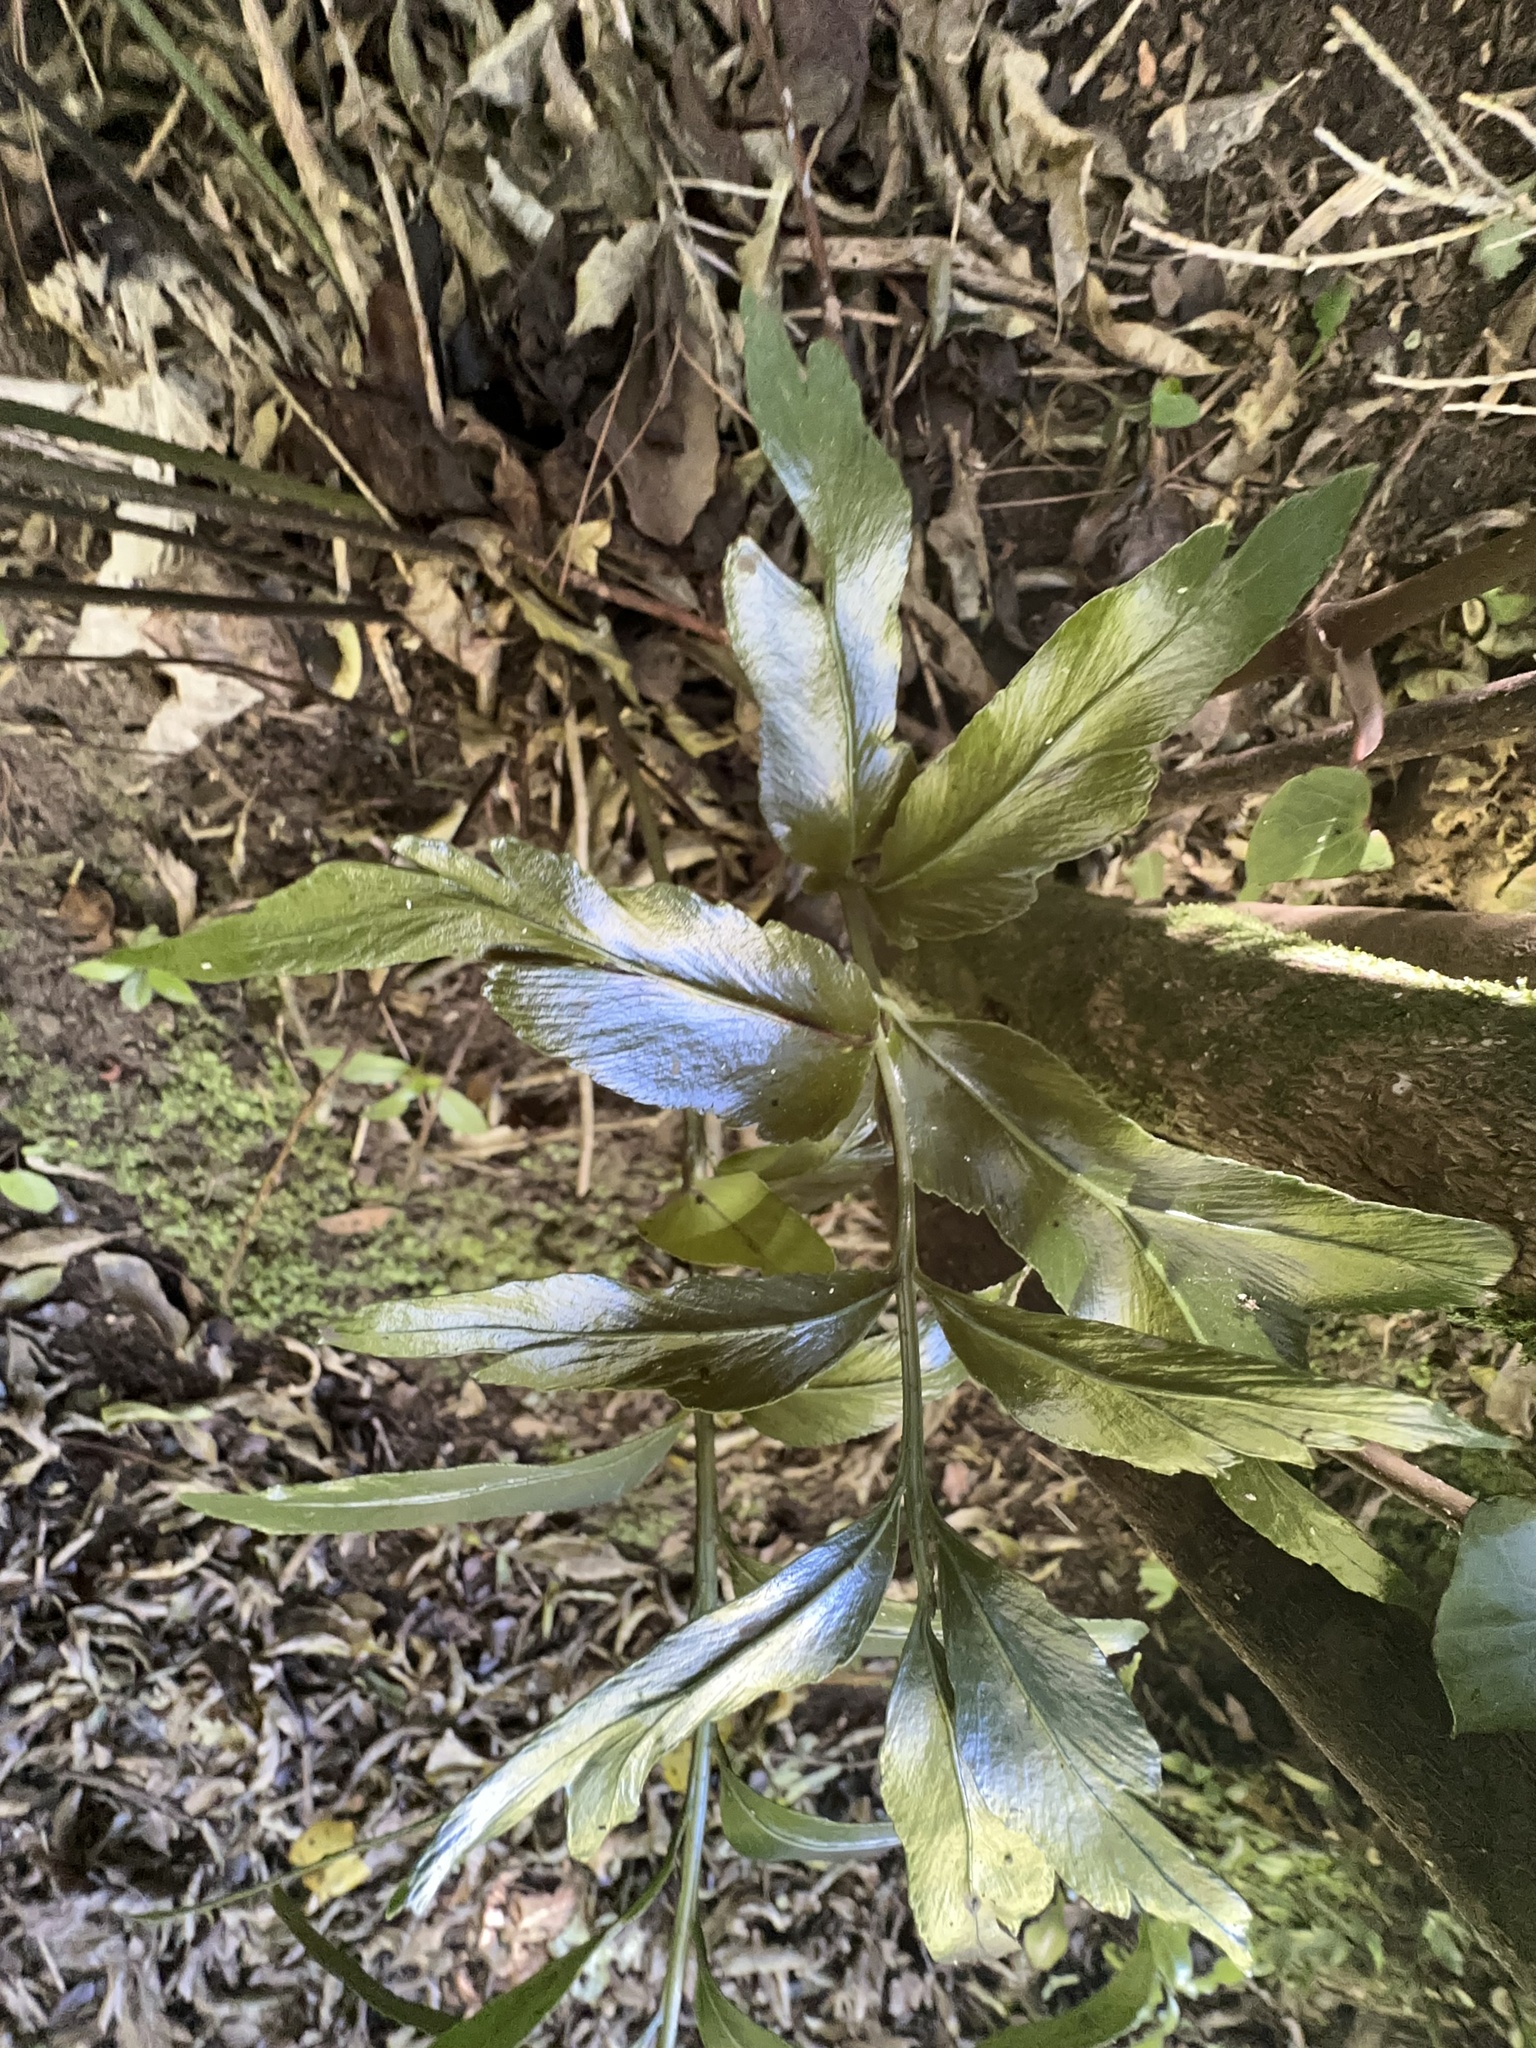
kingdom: Plantae
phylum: Tracheophyta
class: Polypodiopsida
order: Polypodiales
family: Aspleniaceae
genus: Asplenium
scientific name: Asplenium oblongifolium
